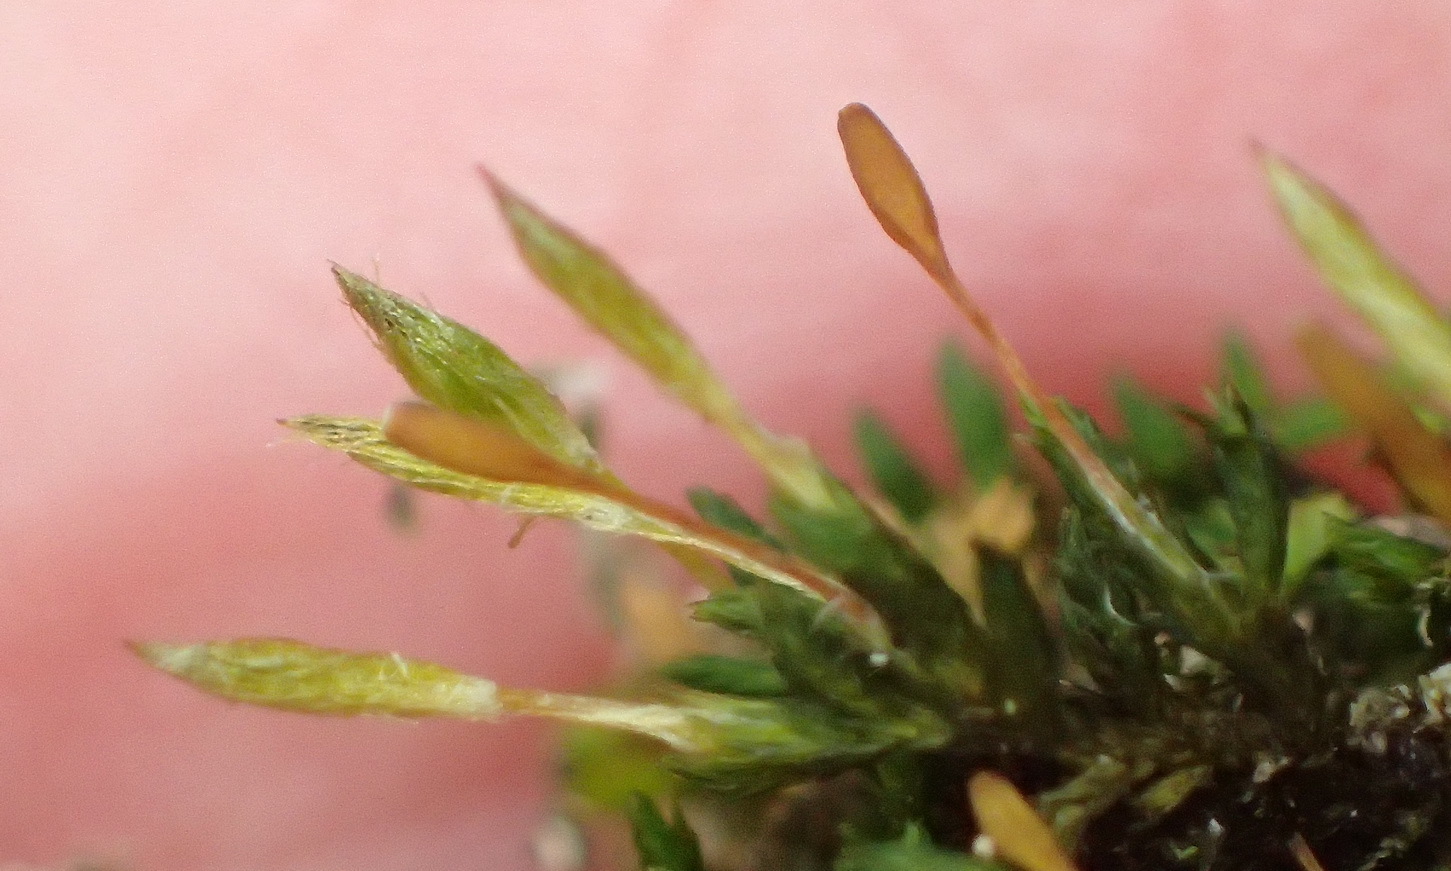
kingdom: Plantae
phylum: Bryophyta
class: Bryopsida
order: Orthotrichales
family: Orthotrichaceae
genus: Macrocoma
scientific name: Macrocoma tenuis
